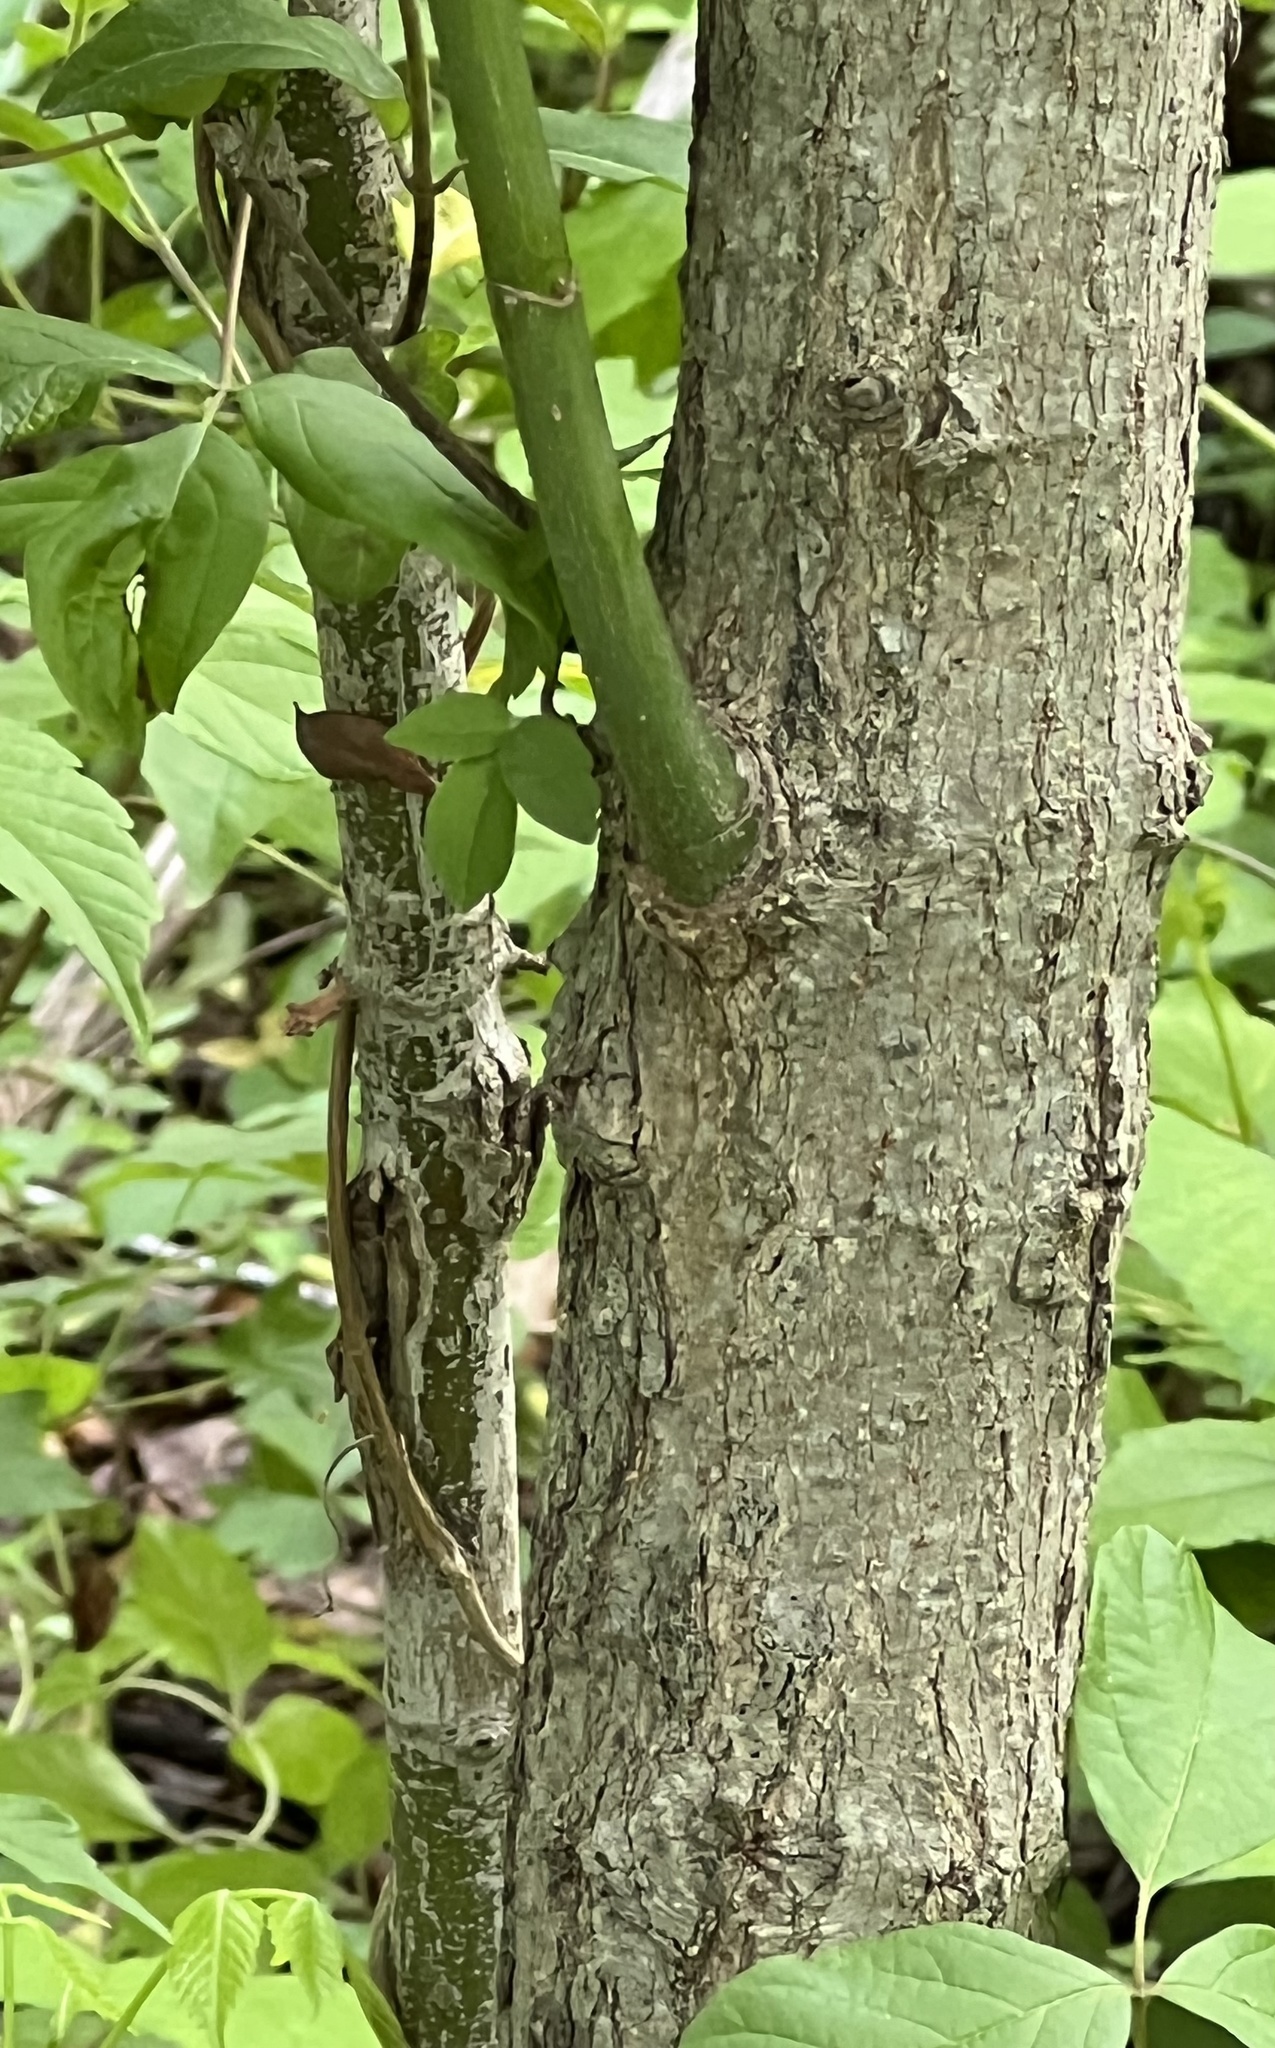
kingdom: Plantae
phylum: Tracheophyta
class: Magnoliopsida
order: Sapindales
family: Sapindaceae
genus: Acer
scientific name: Acer negundo
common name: Ashleaf maple
